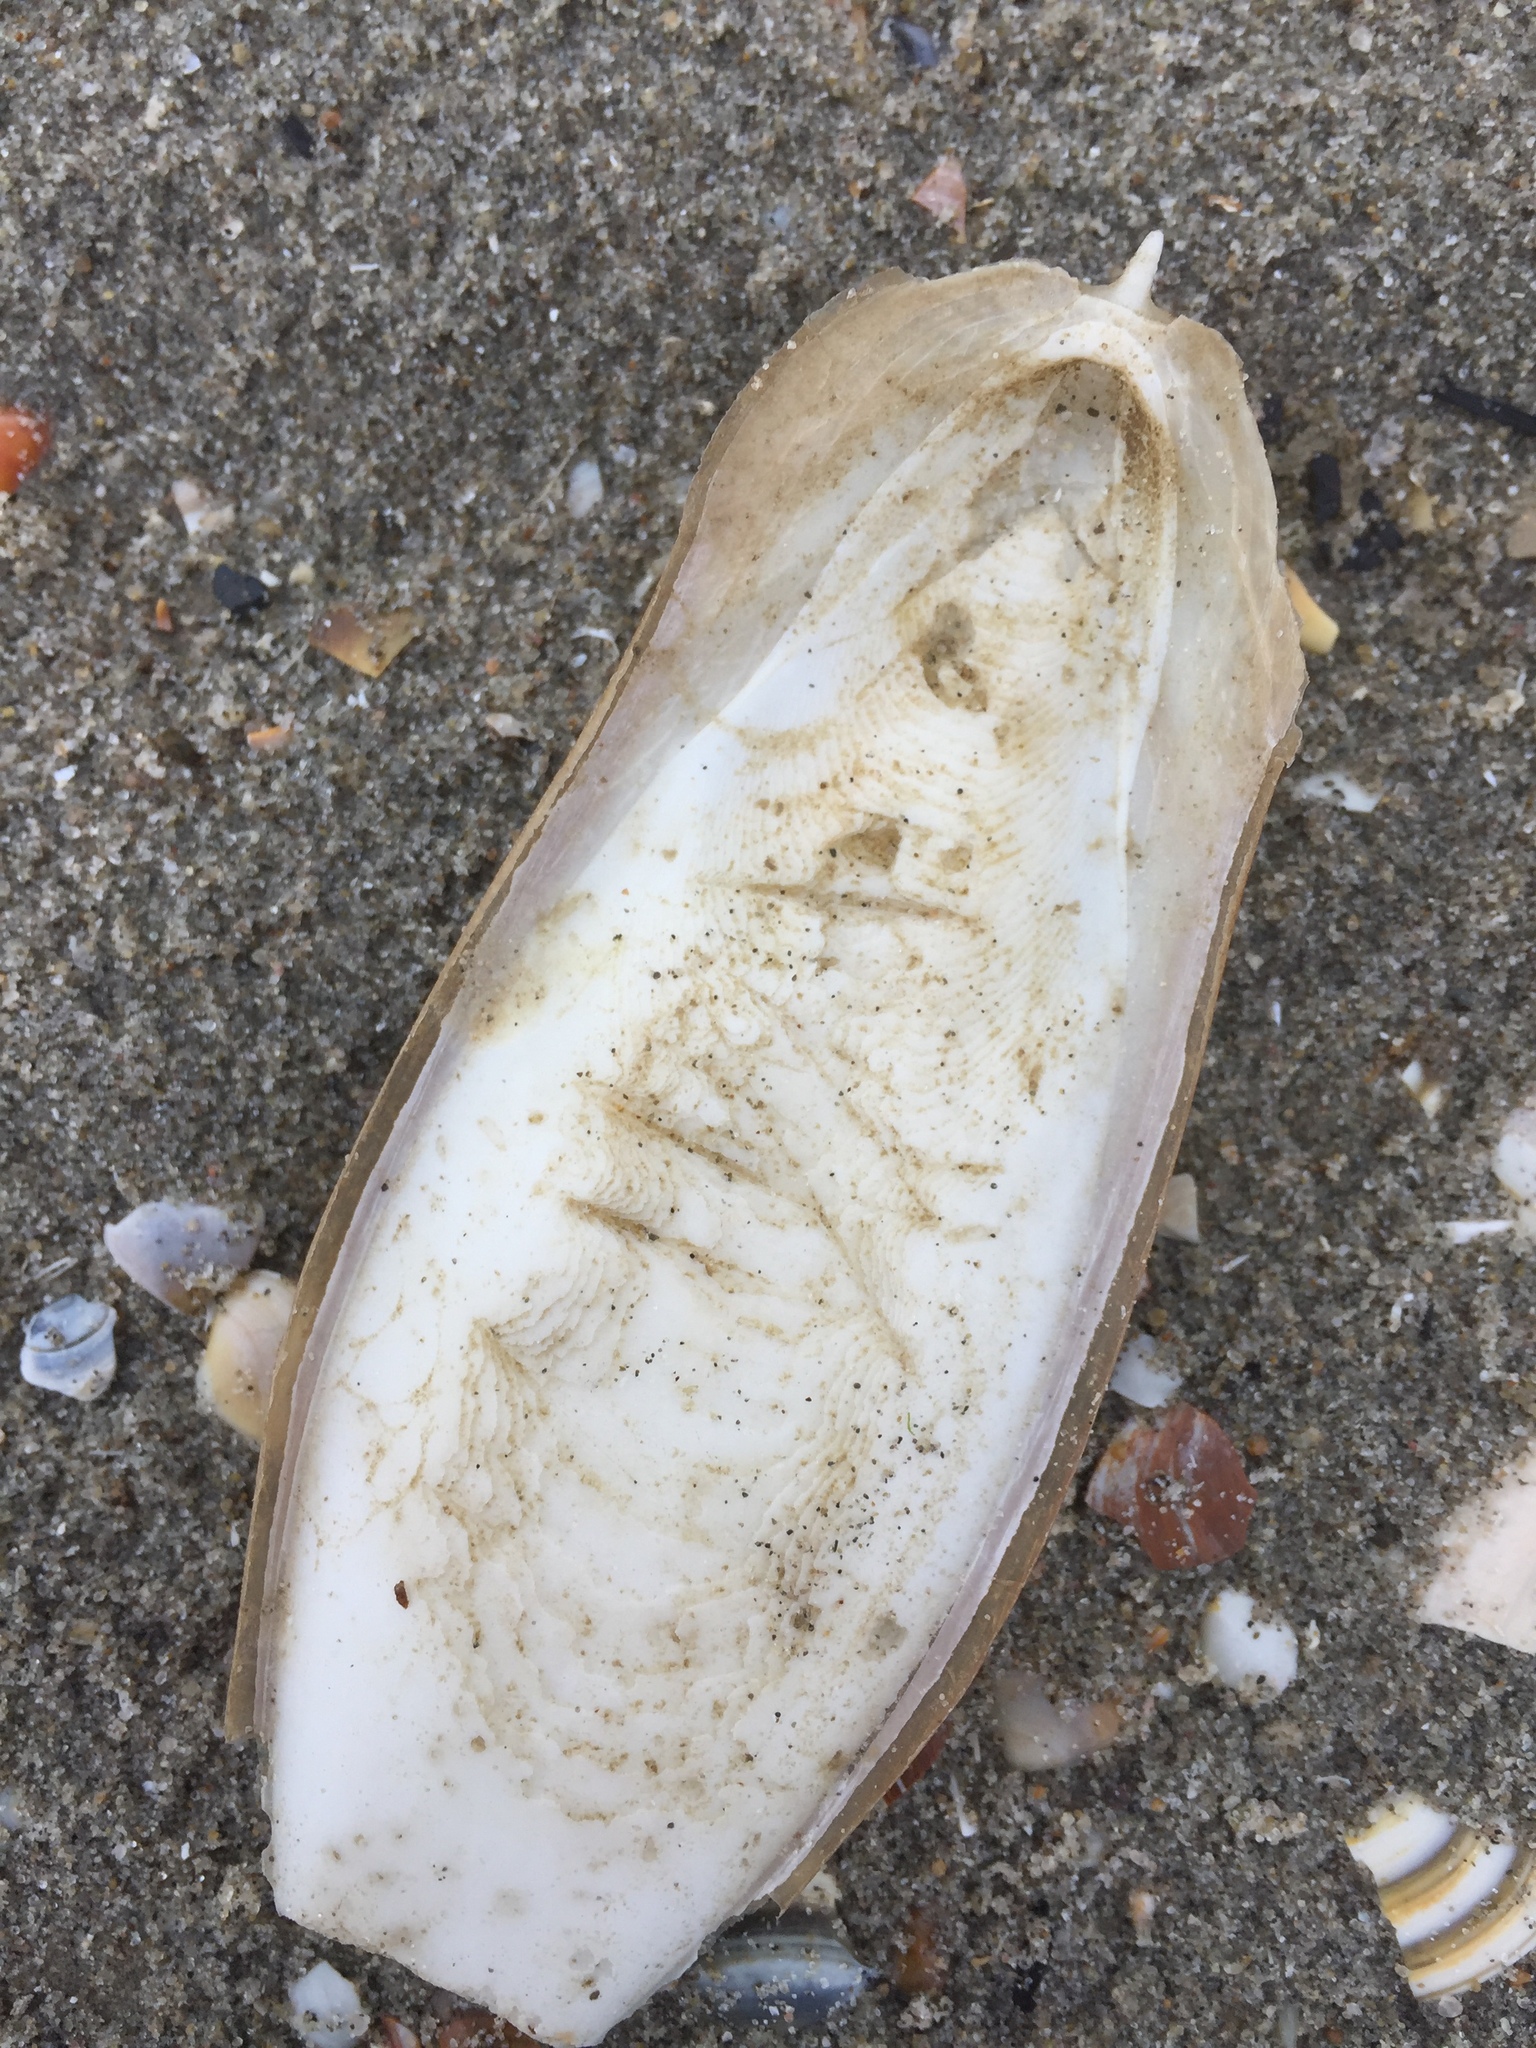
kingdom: Animalia
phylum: Mollusca
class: Cephalopoda
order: Sepiida
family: Sepiidae
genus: Sepia
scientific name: Sepia officinalis
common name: Common cuttlefish
